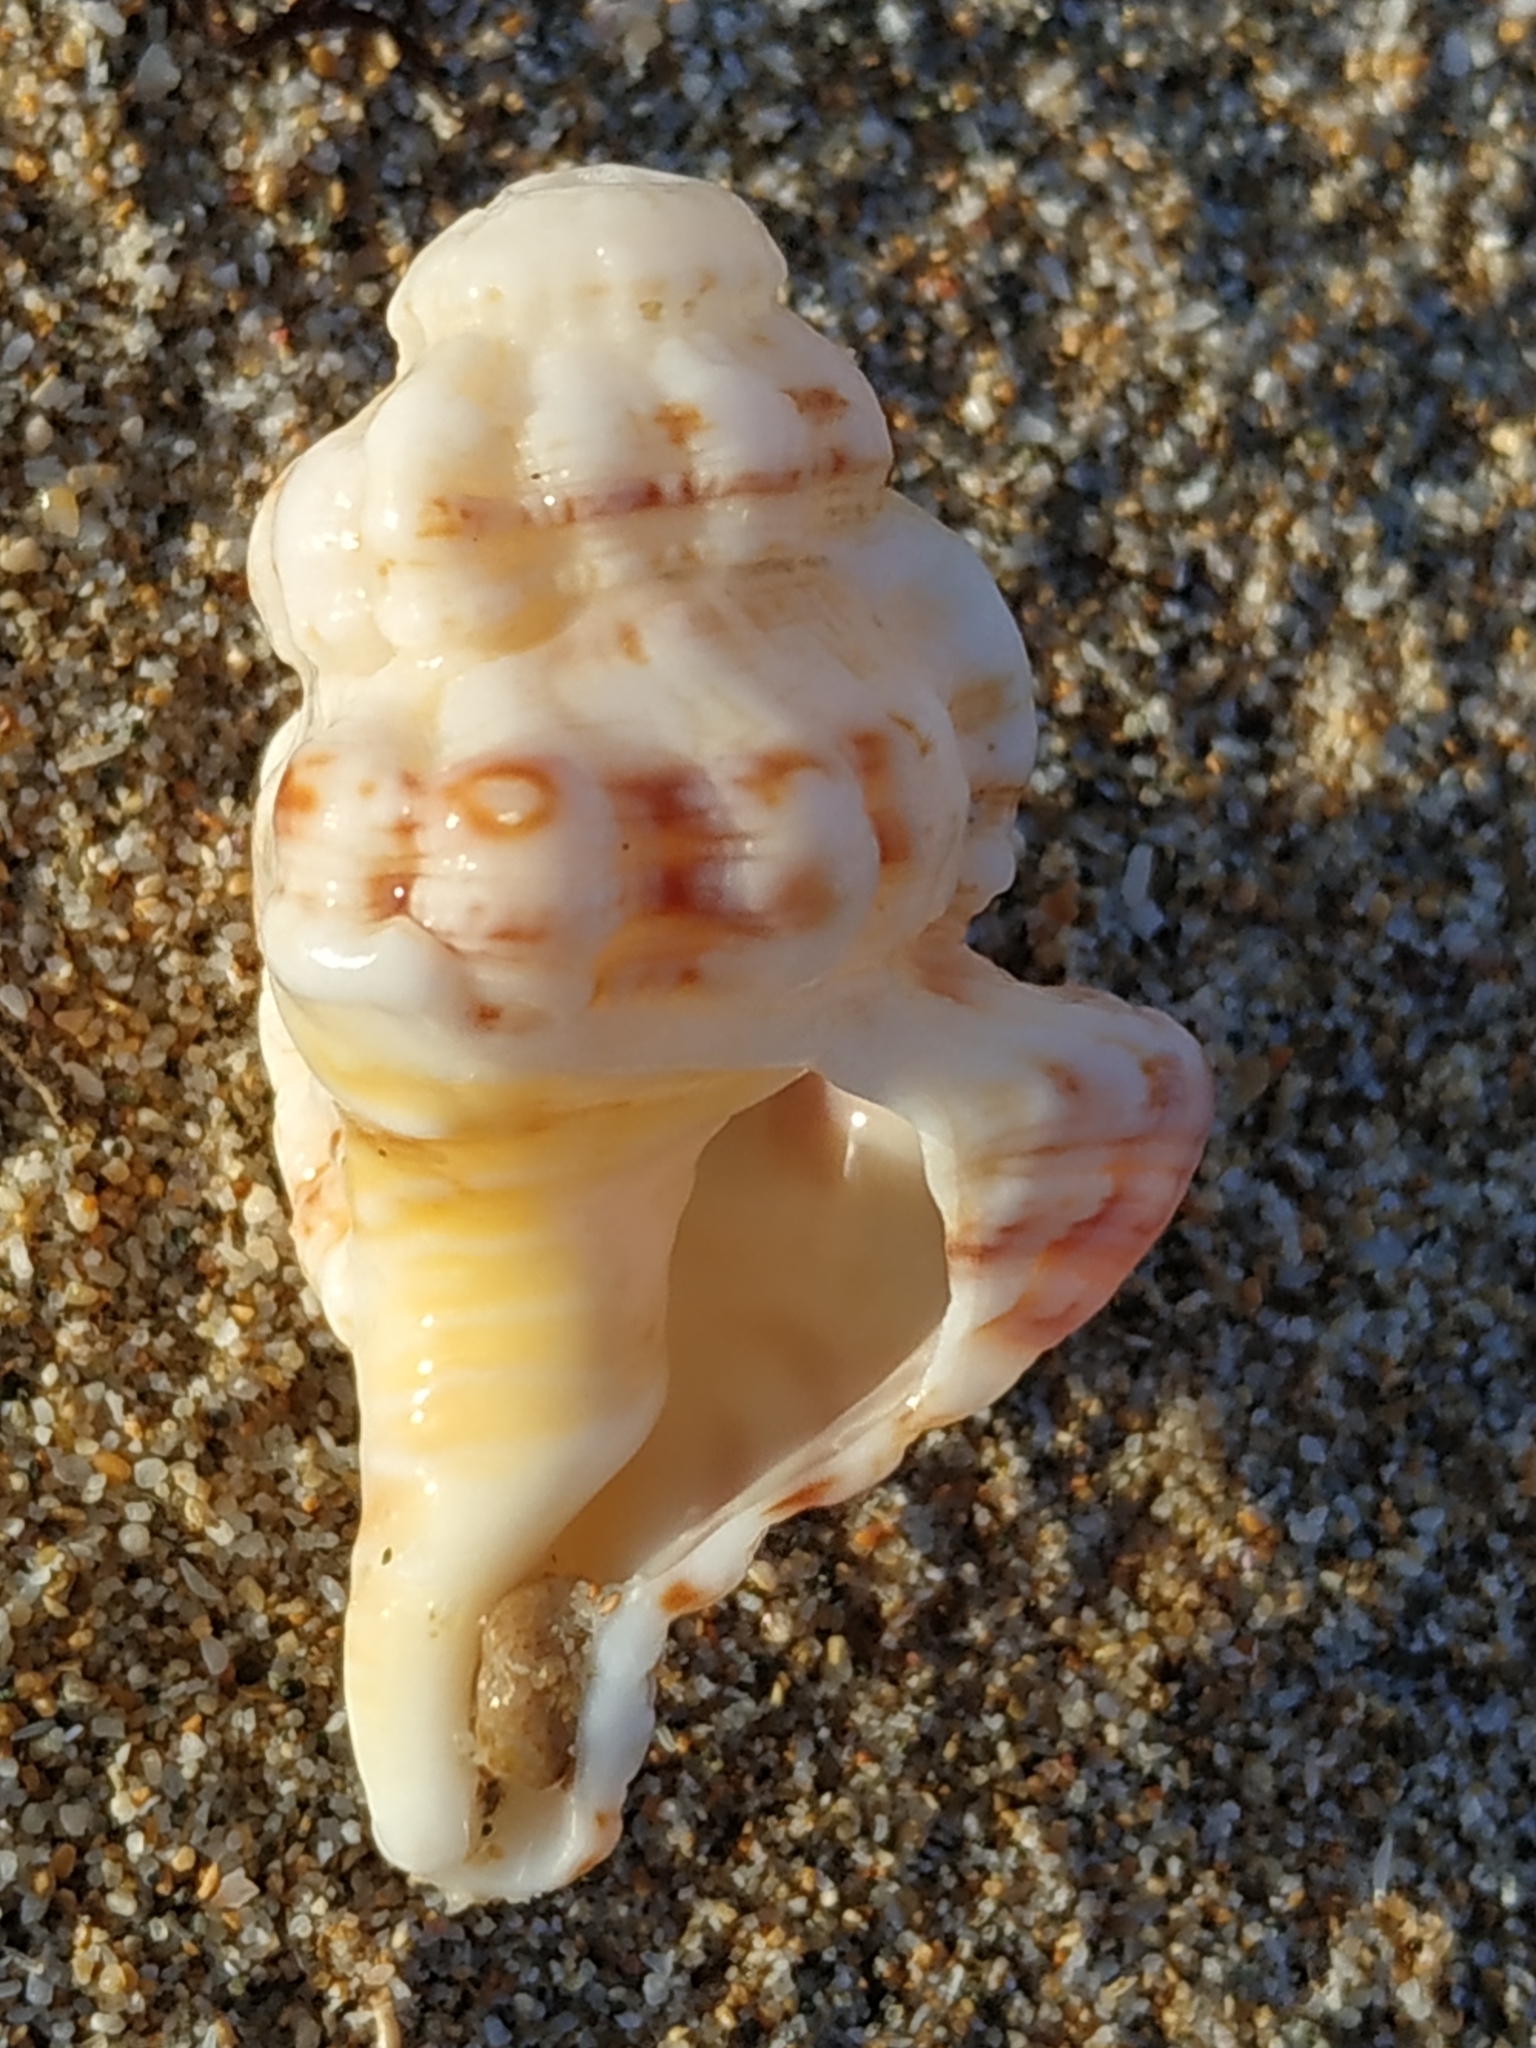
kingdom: Animalia
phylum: Mollusca
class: Gastropoda
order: Littorinimorpha
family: Cymatiidae
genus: Monoplex
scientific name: Monoplex nicobaricus
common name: Goldmouth triton
